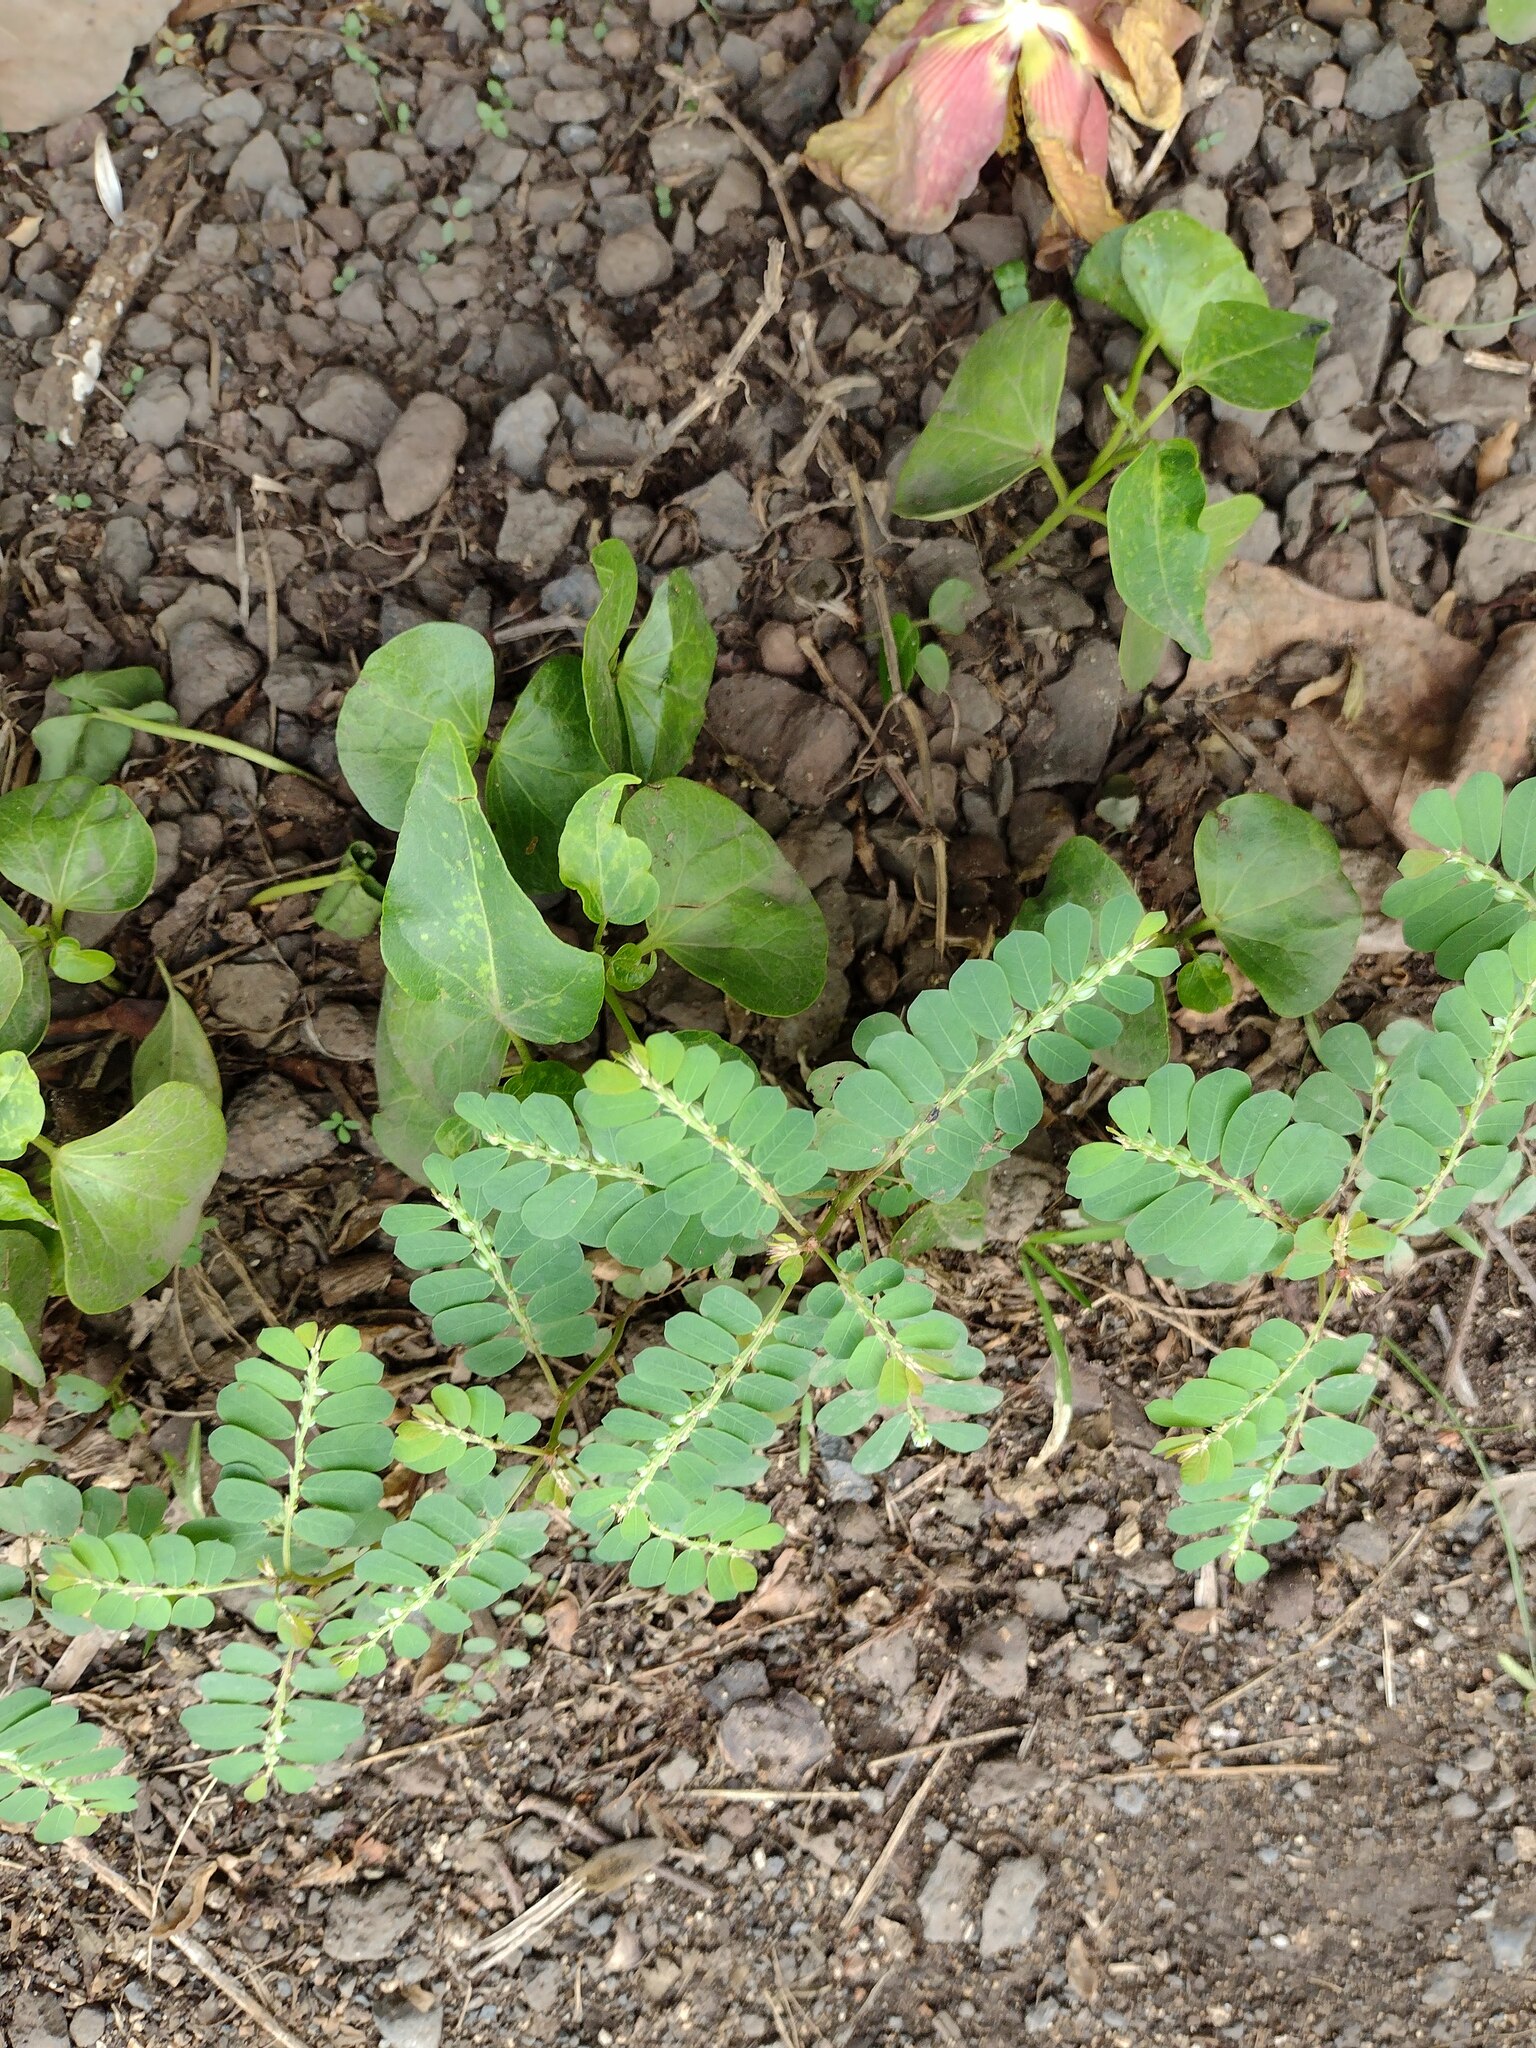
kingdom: Plantae
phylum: Tracheophyta
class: Magnoliopsida
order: Malpighiales
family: Phyllanthaceae
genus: Phyllanthus
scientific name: Phyllanthus leucanthus
